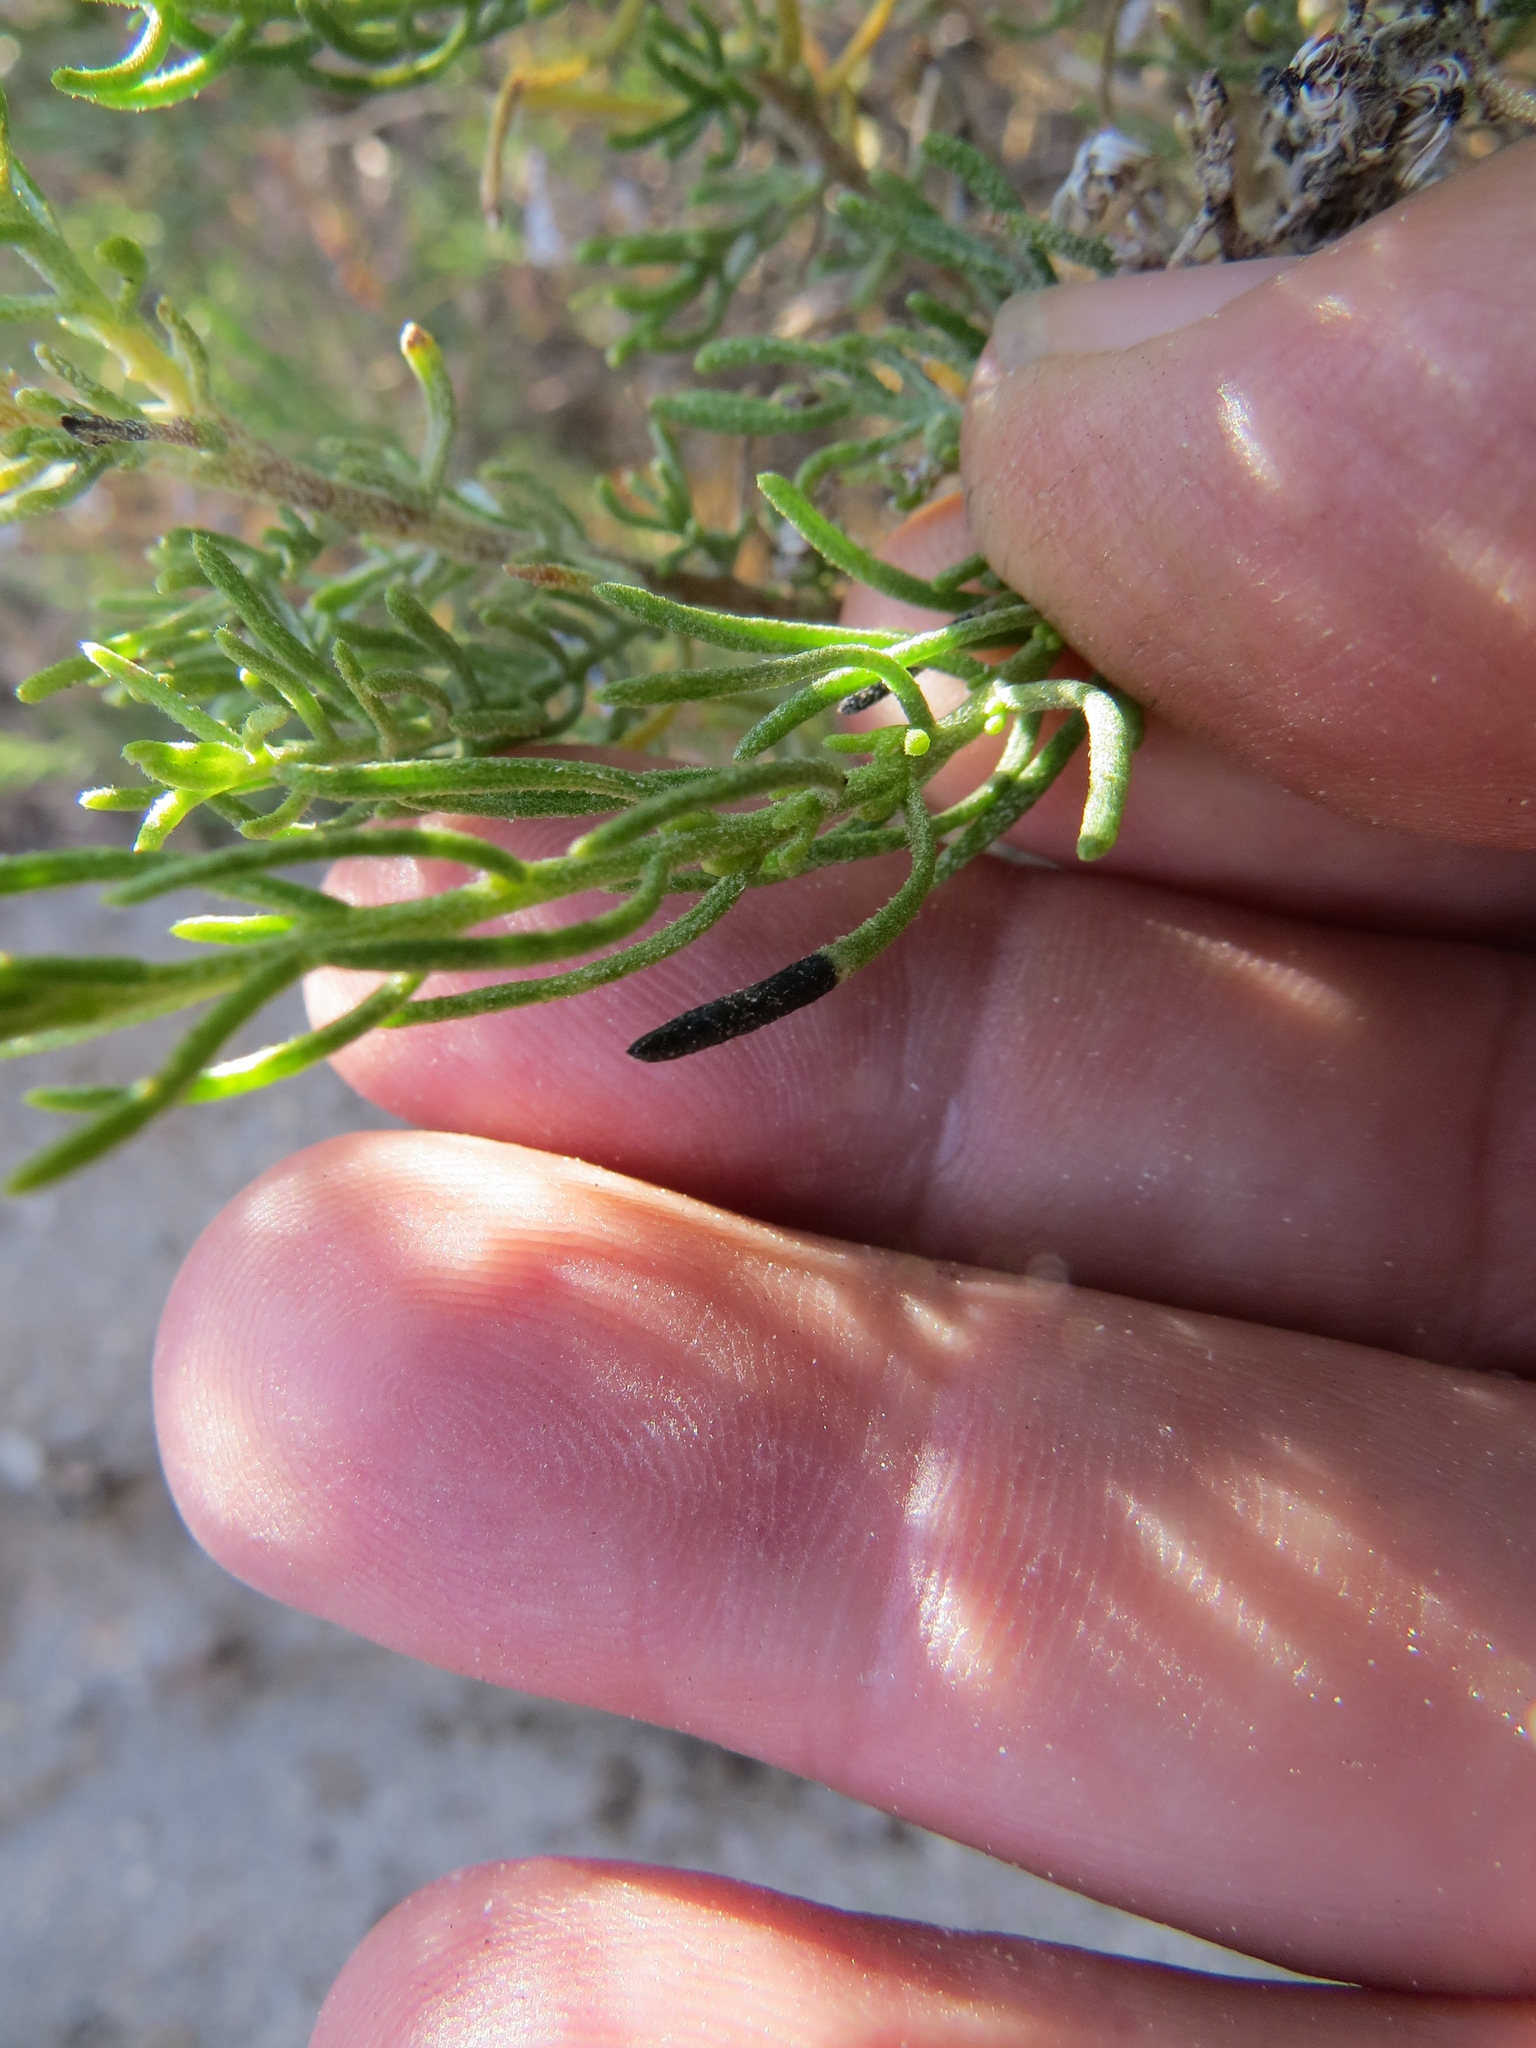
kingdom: Animalia
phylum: Arthropoda
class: Insecta
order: Diptera
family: Cecidomyiidae
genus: Asteromyia
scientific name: Asteromyia gutierreziae
